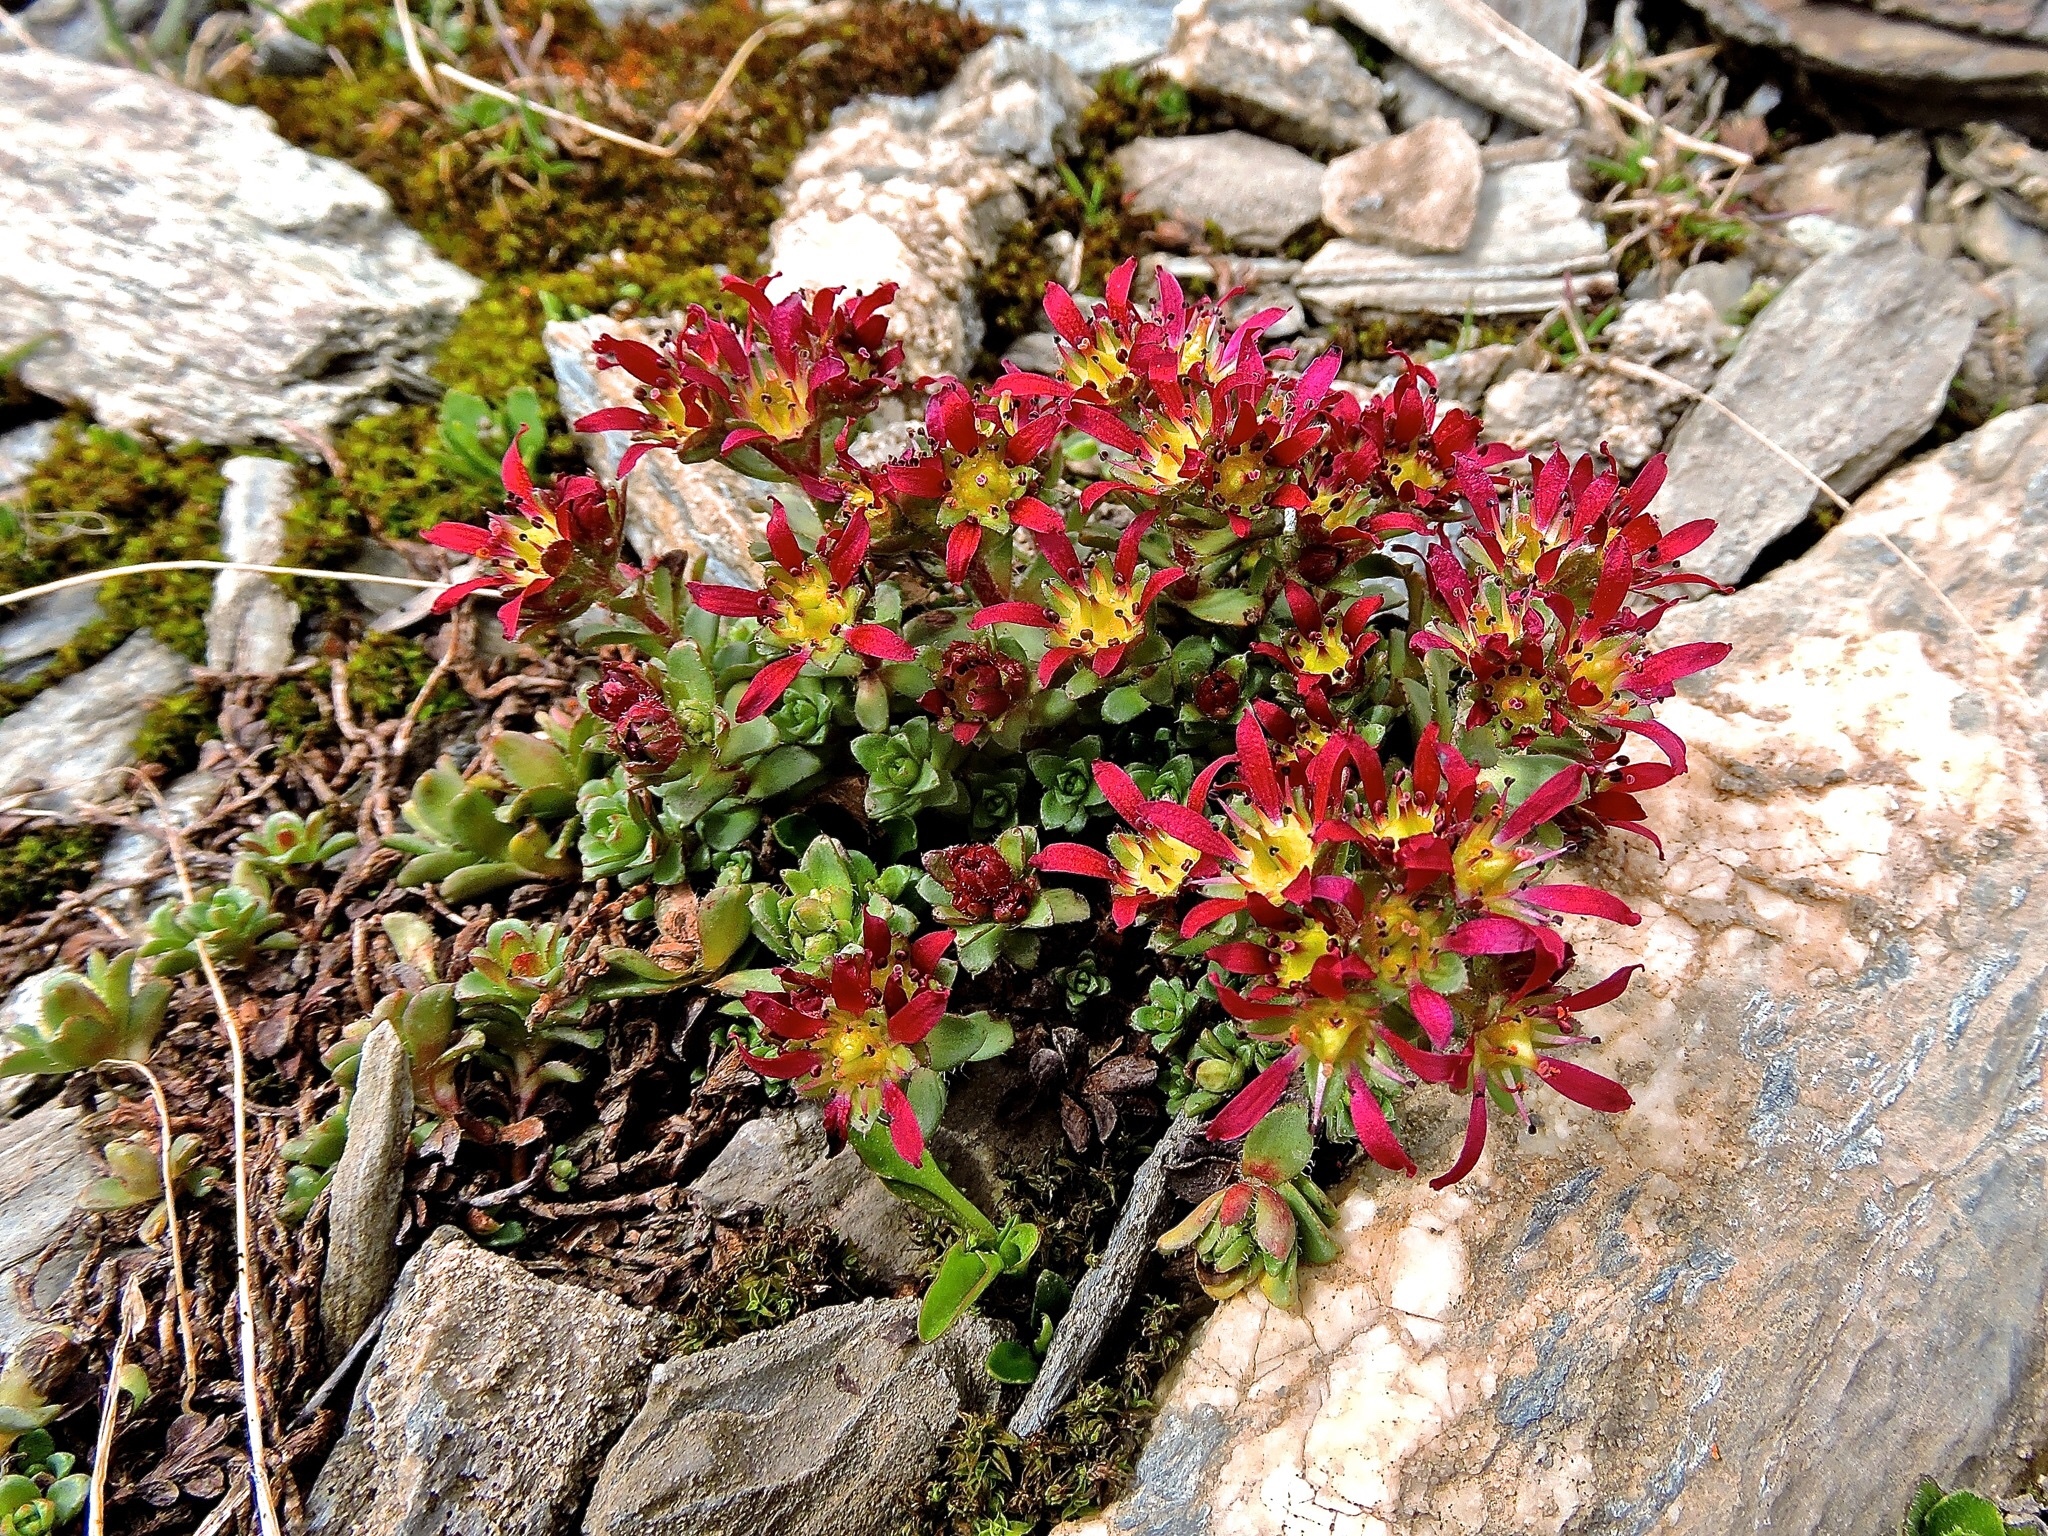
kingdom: Plantae
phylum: Tracheophyta
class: Magnoliopsida
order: Saxifragales
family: Saxifragaceae
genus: Saxifraga
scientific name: Saxifraga biflora
